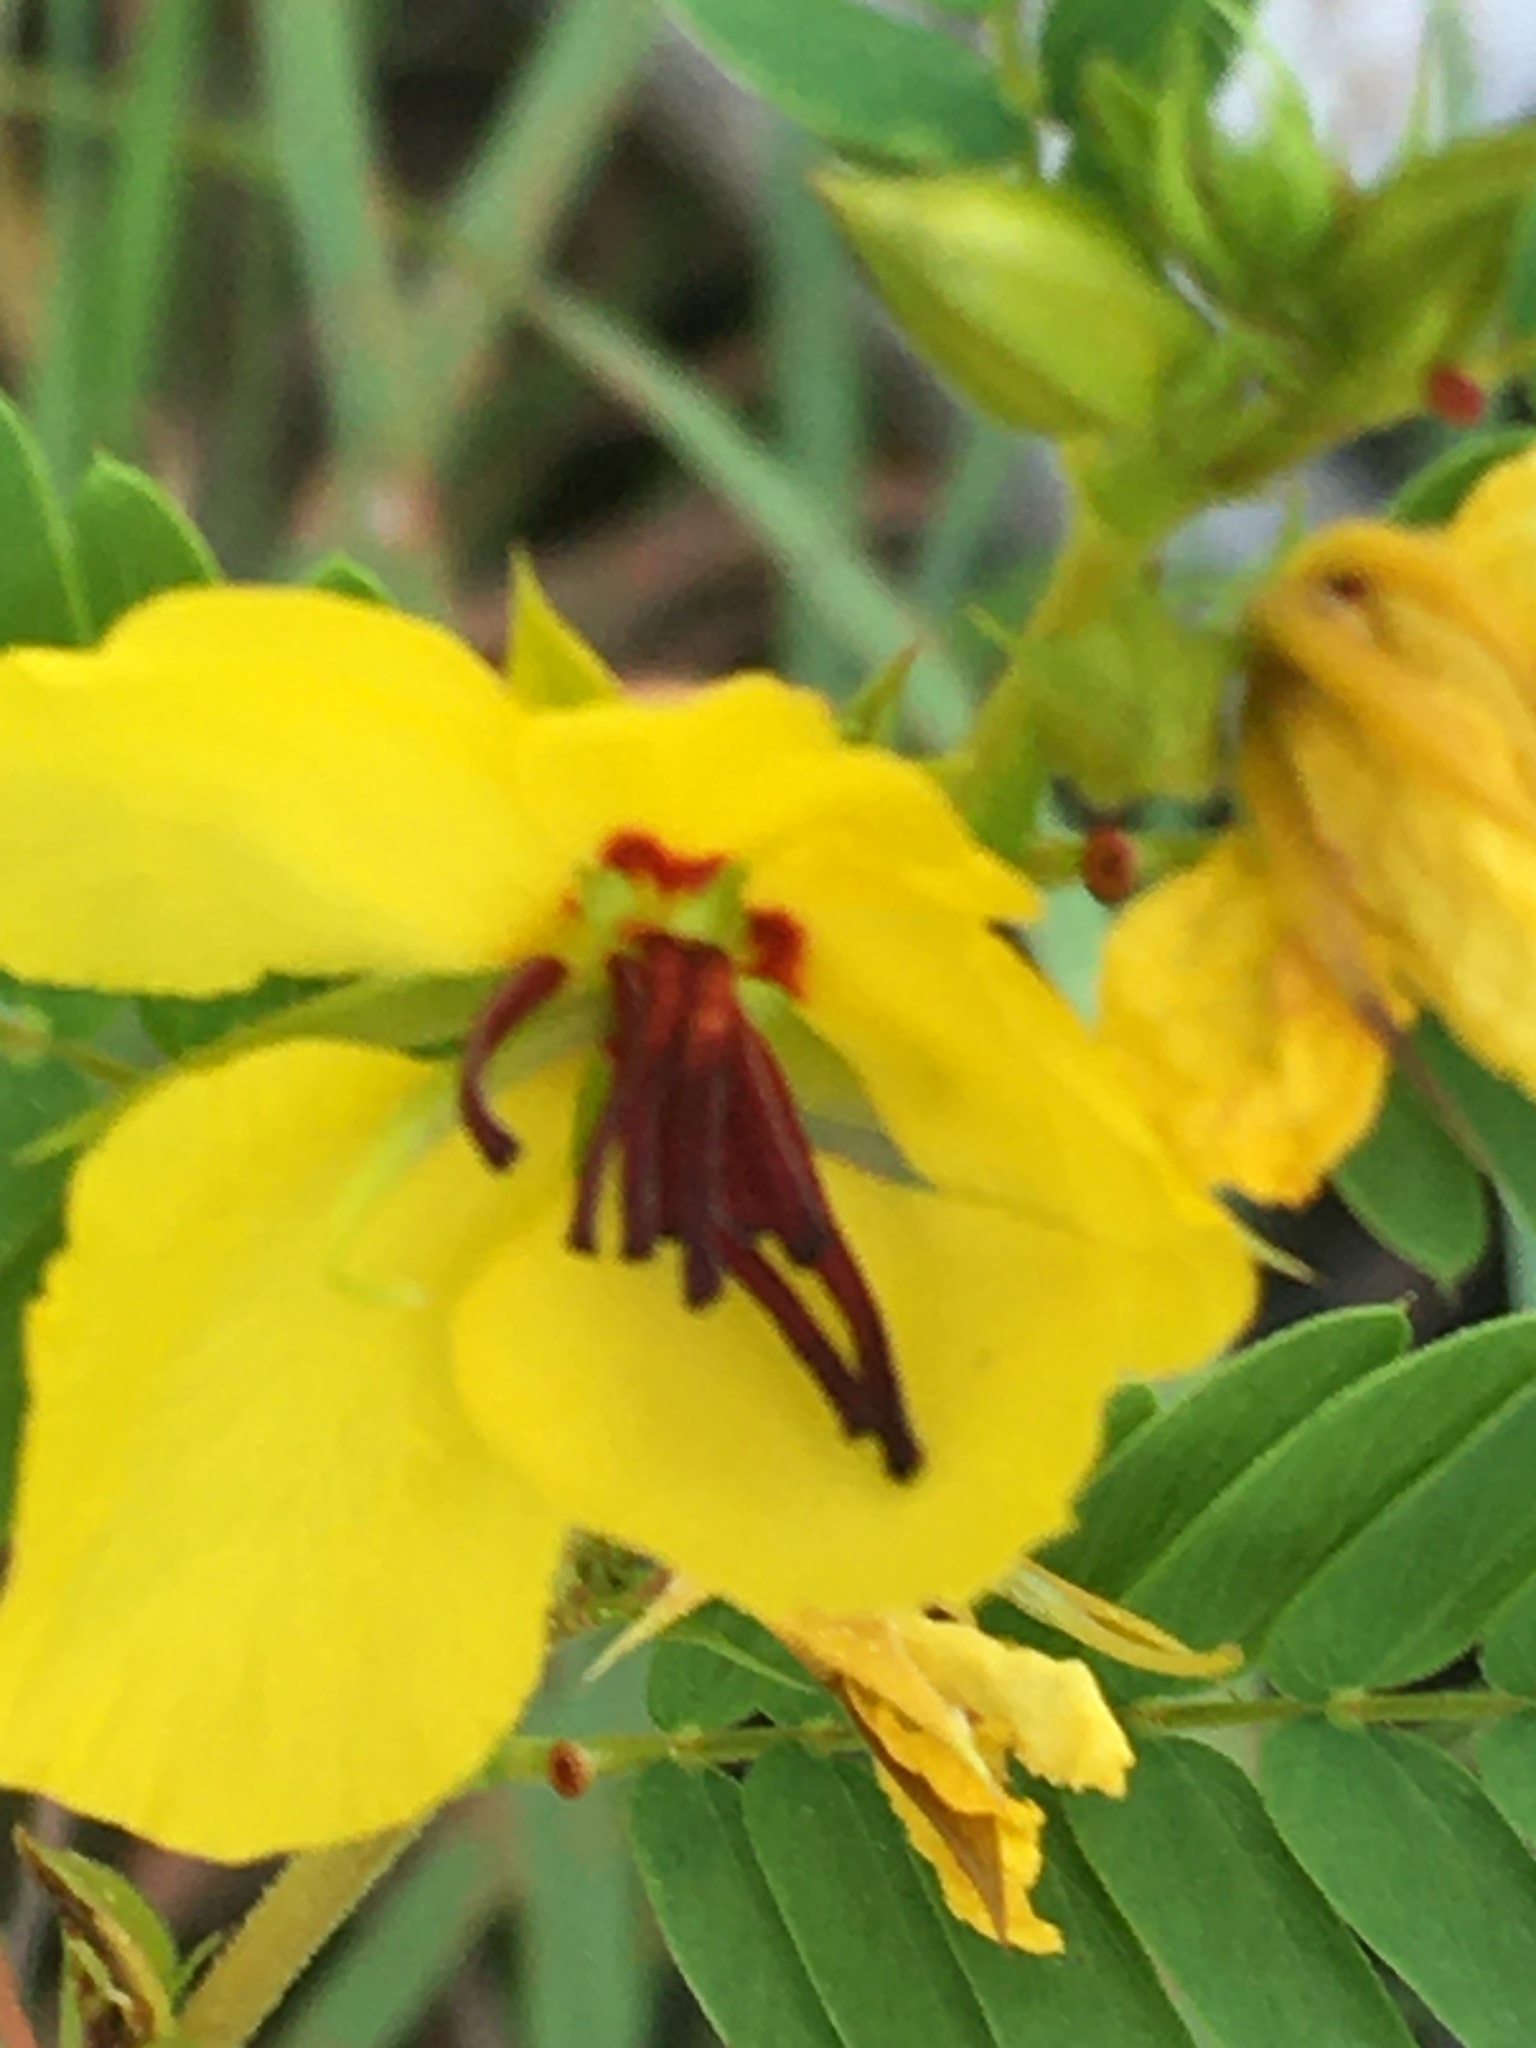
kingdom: Plantae
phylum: Tracheophyta
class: Magnoliopsida
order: Fabales
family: Fabaceae
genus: Chamaecrista
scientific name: Chamaecrista fasciculata
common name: Golden cassia
